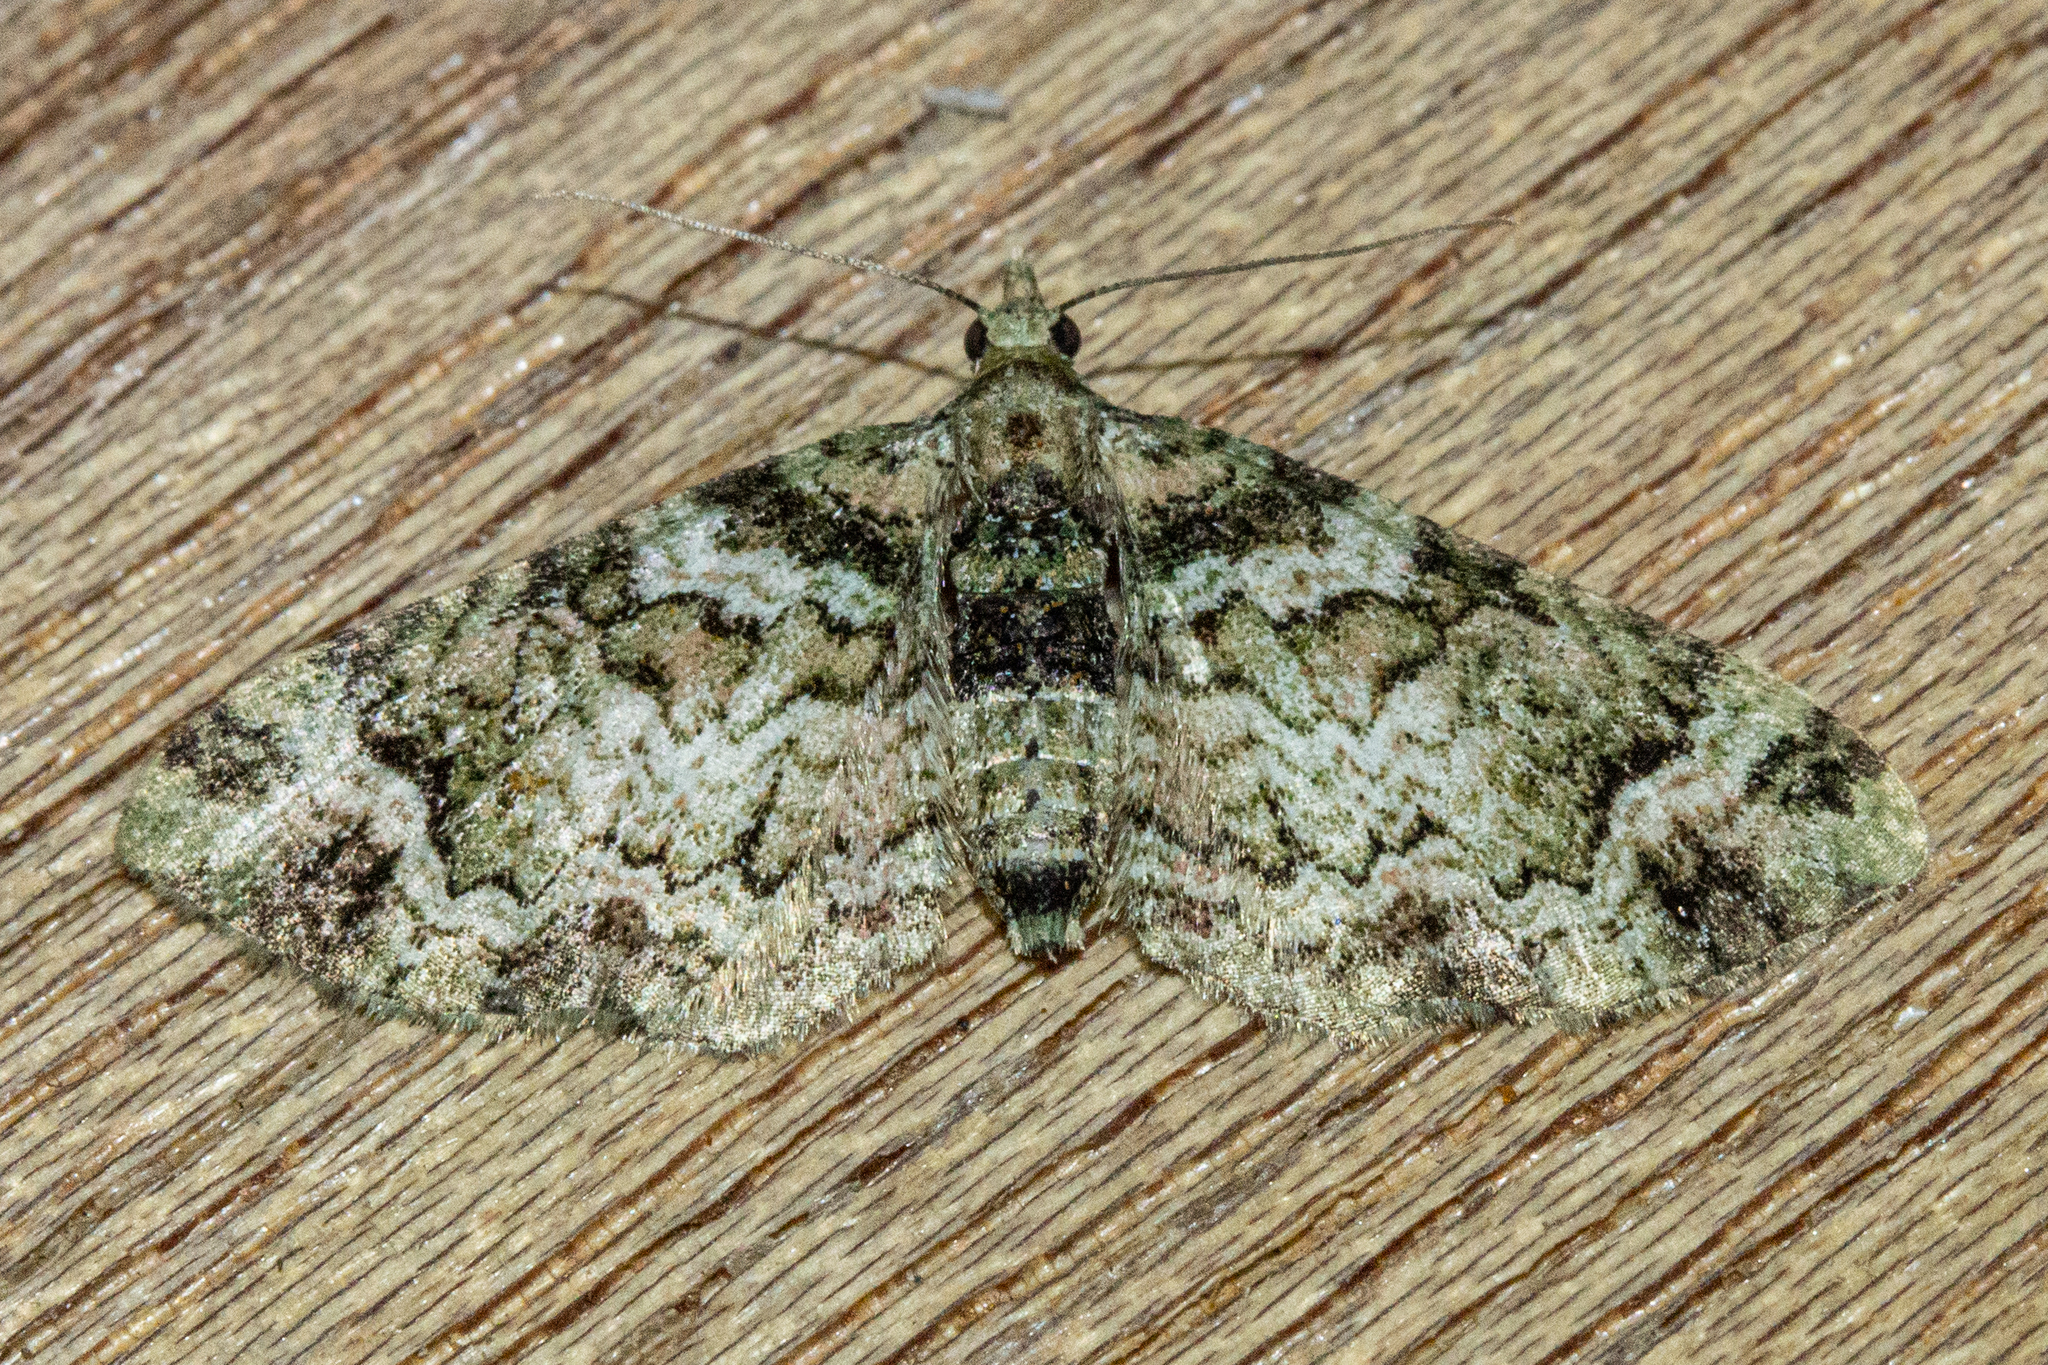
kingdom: Animalia
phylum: Arthropoda
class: Insecta
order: Lepidoptera
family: Geometridae
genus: Pasiphila
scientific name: Pasiphila urticae
